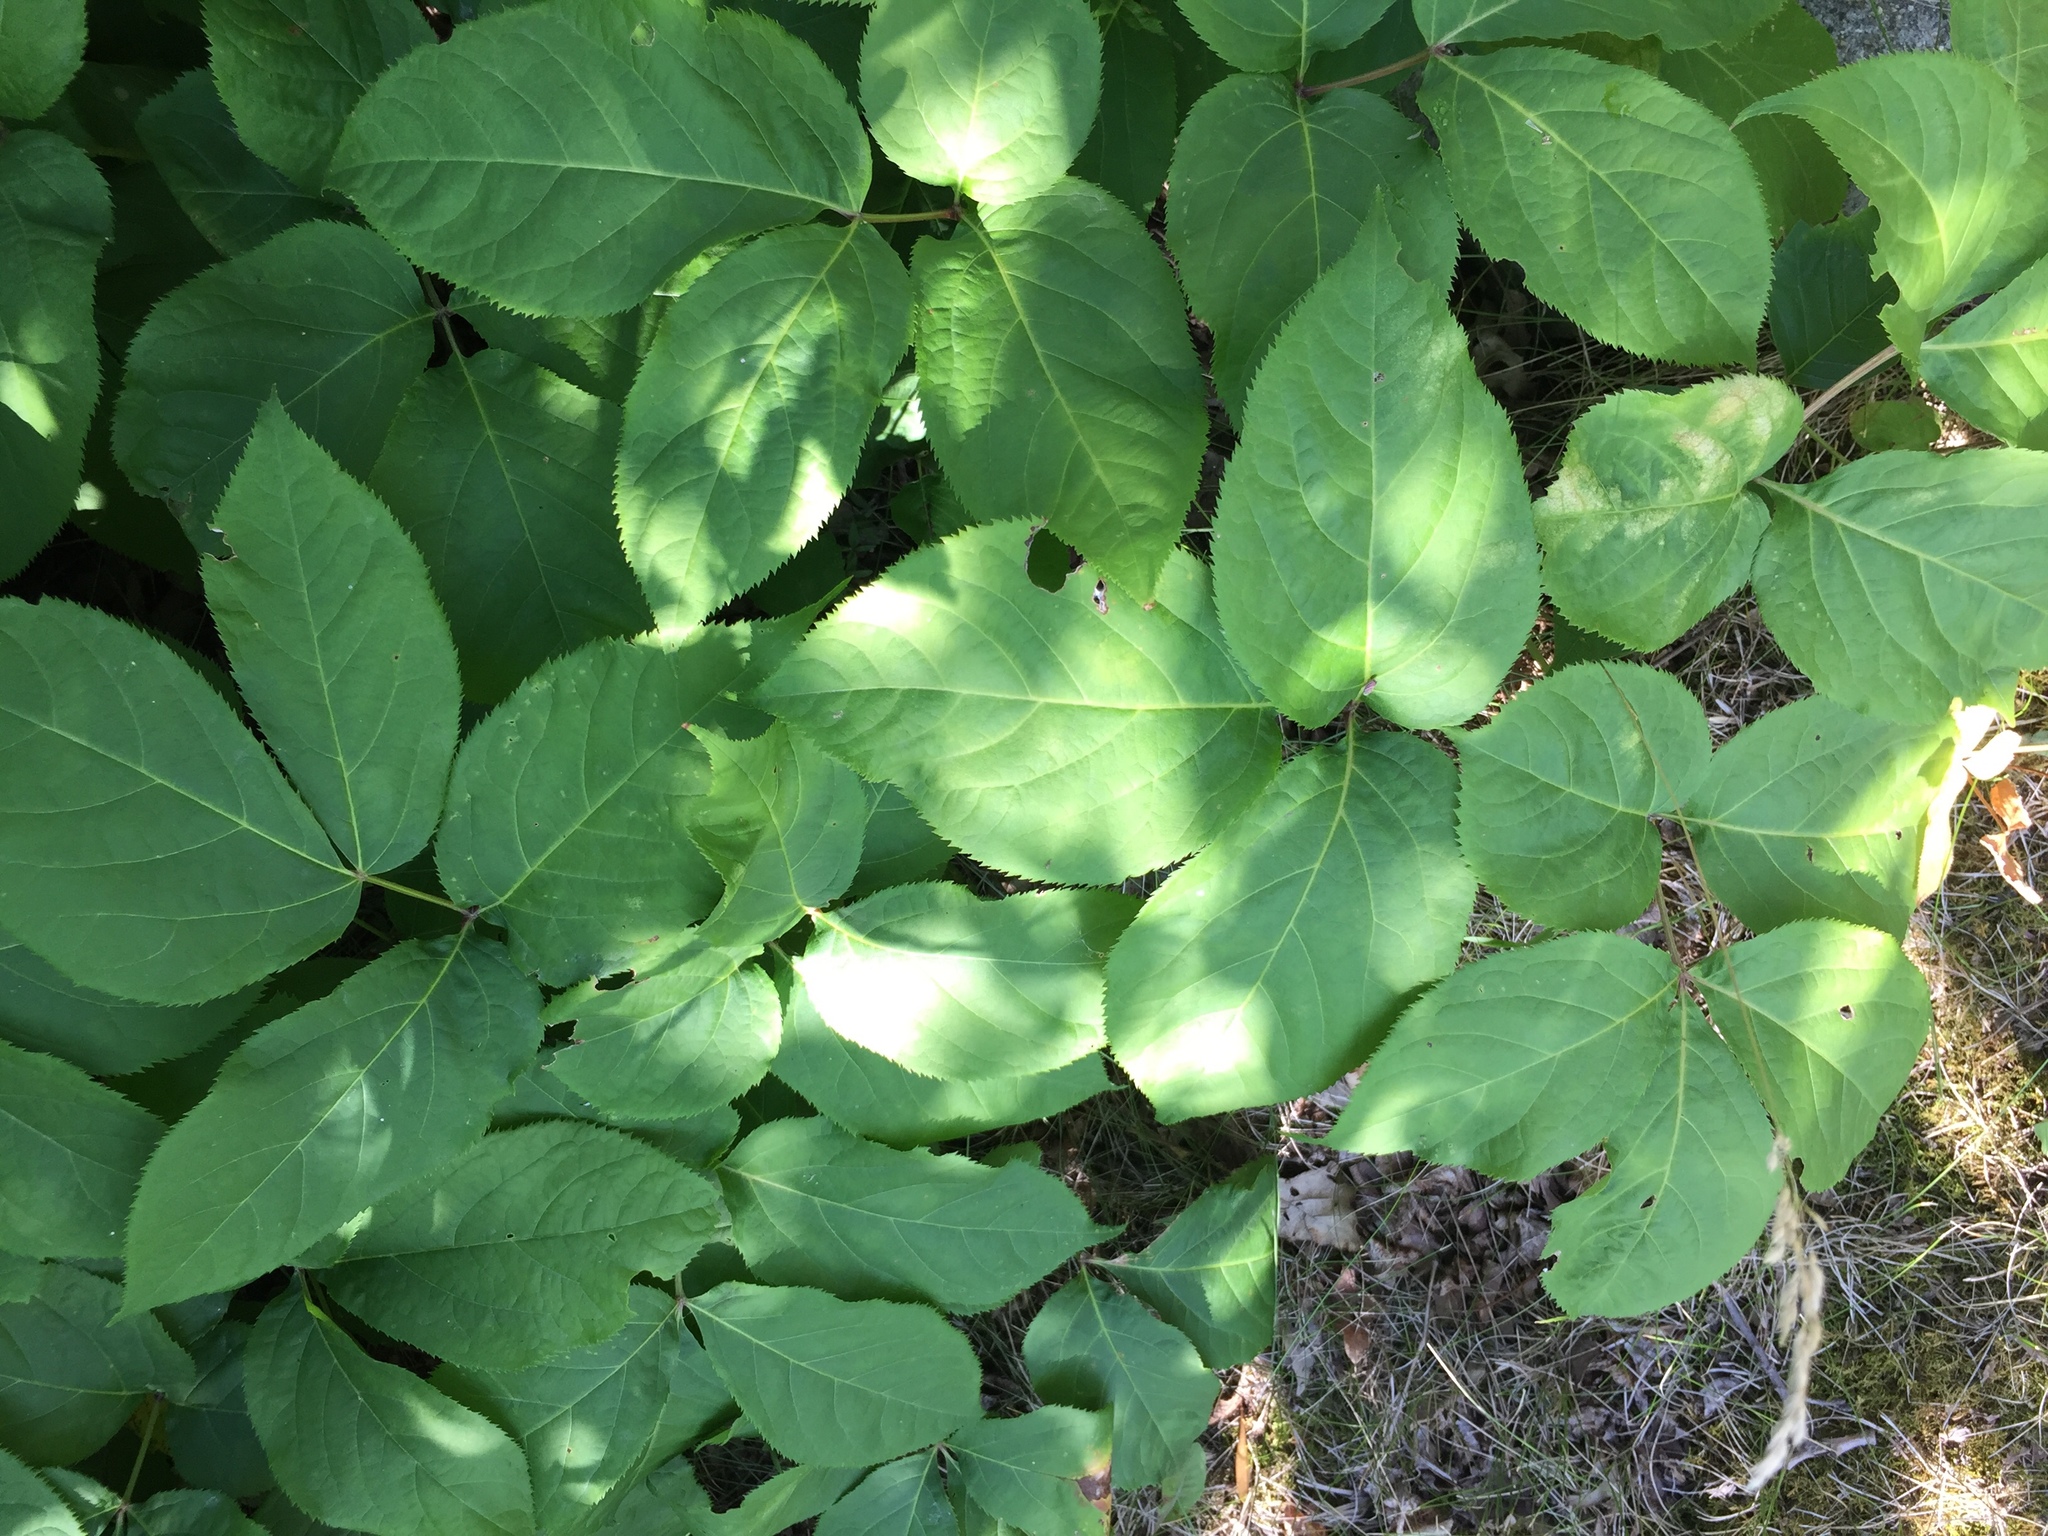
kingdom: Plantae
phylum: Tracheophyta
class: Magnoliopsida
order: Apiales
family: Araliaceae
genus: Aralia
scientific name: Aralia nudicaulis
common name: Wild sarsaparilla
